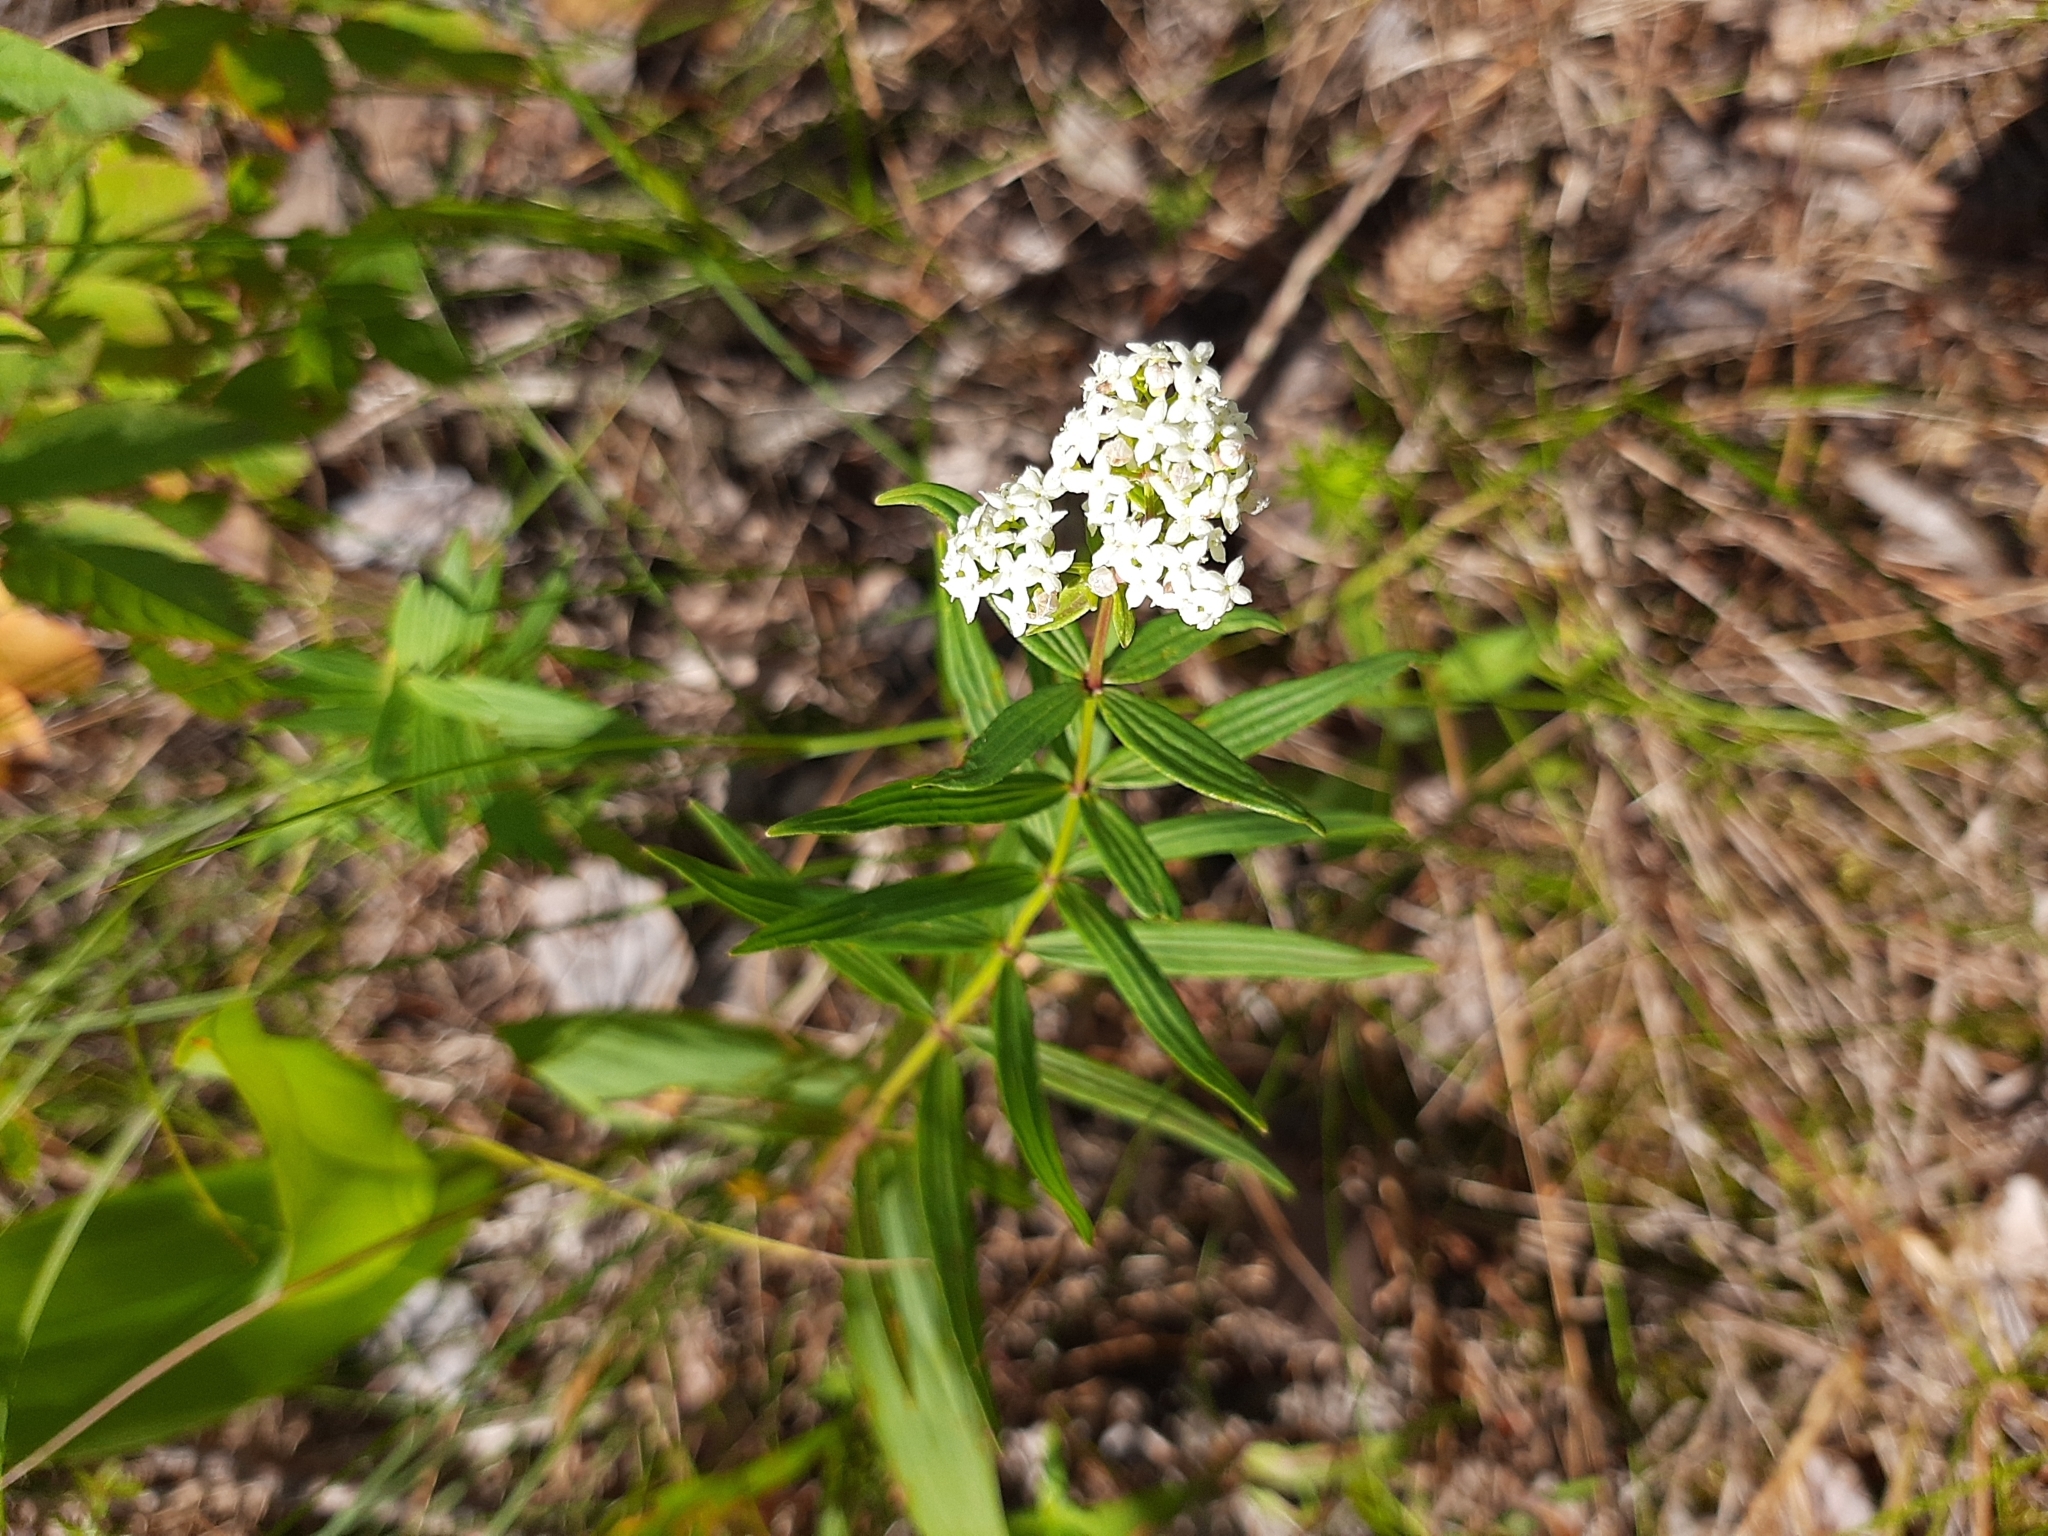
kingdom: Plantae
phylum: Tracheophyta
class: Magnoliopsida
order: Gentianales
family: Rubiaceae
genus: Galium
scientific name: Galium boreale
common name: Northern bedstraw
